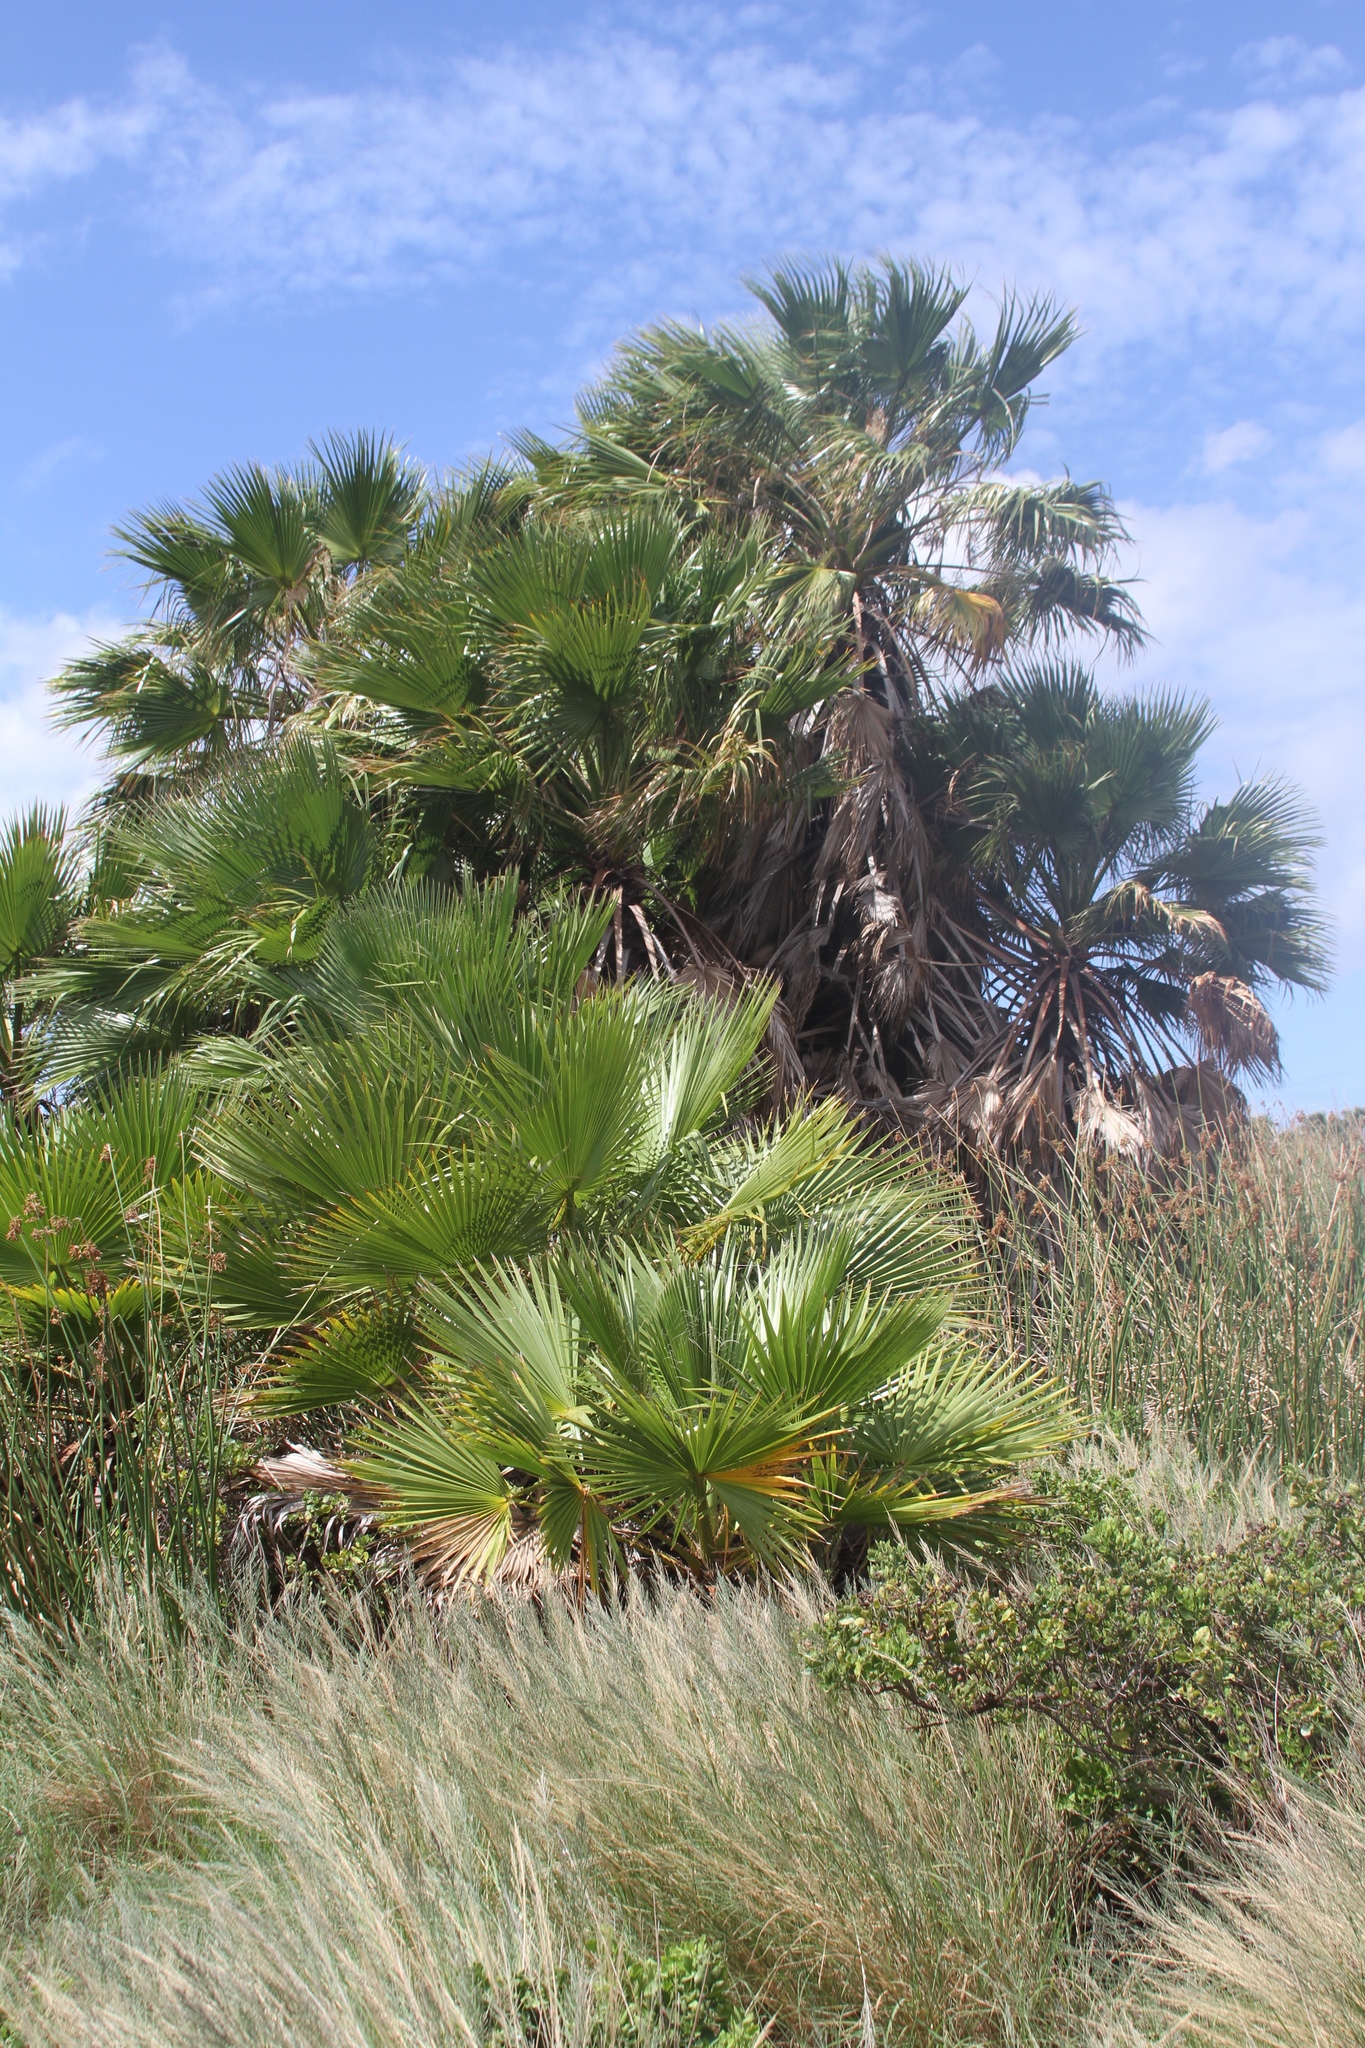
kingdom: Plantae
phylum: Tracheophyta
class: Liliopsida
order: Arecales
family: Arecaceae
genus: Washingtonia
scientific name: Washingtonia robusta
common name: Mexican fan palm
